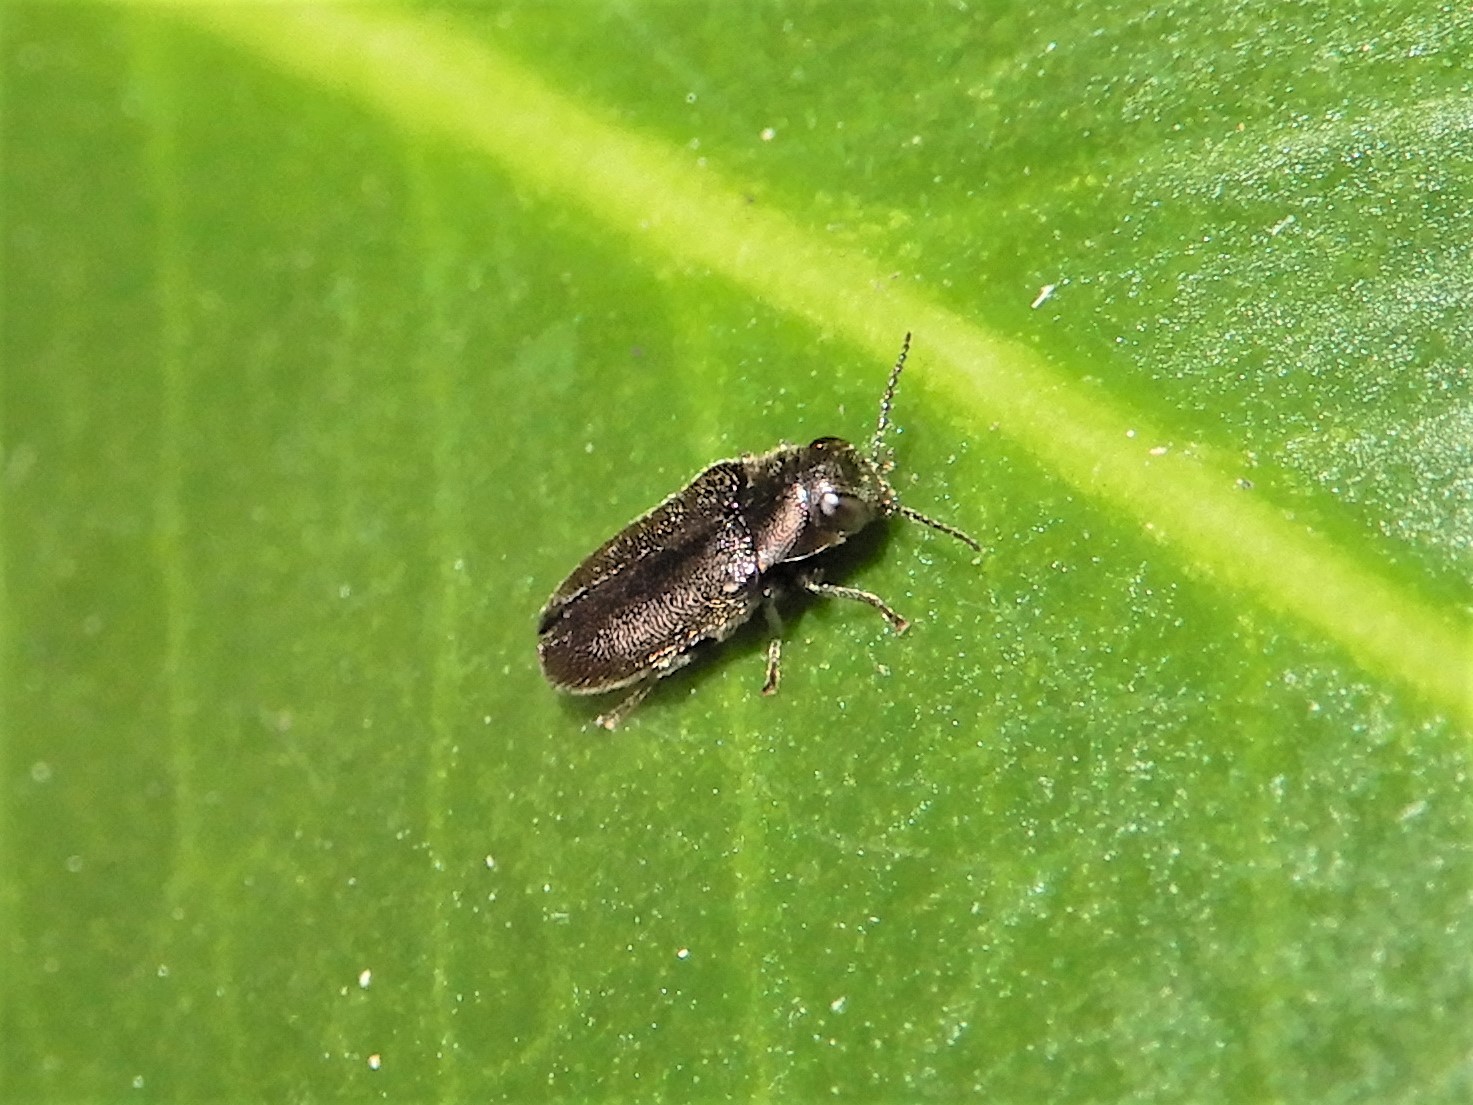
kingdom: Animalia
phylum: Arthropoda
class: Insecta
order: Coleoptera
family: Buprestidae
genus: Maoraxia
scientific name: Maoraxia eremita
